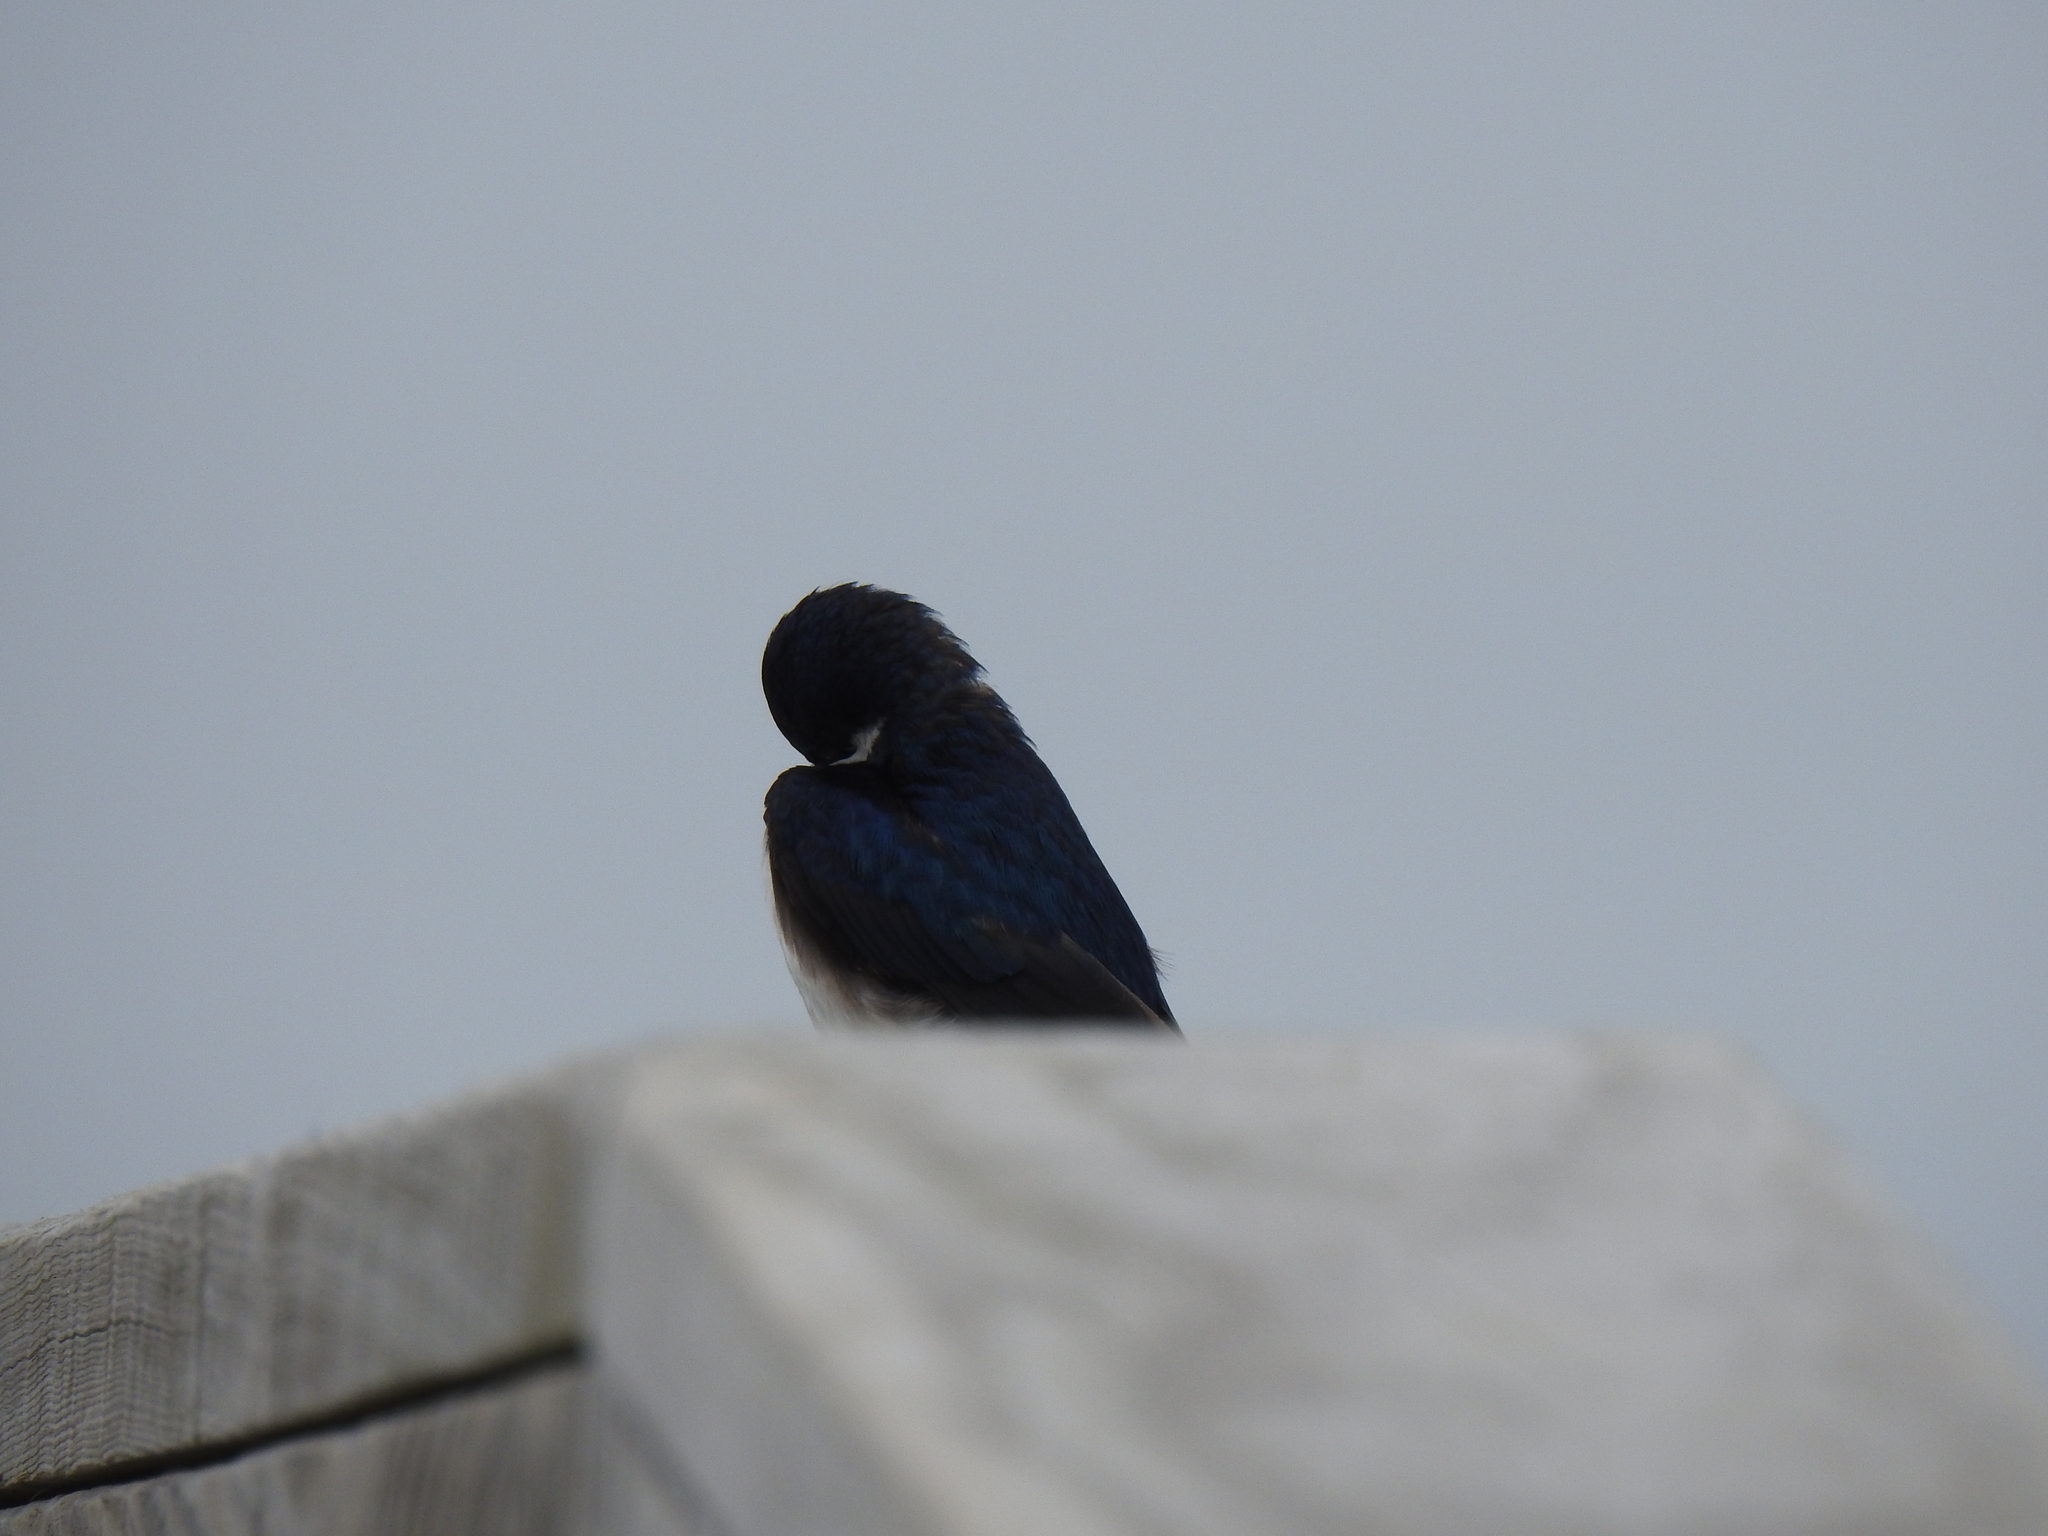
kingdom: Animalia
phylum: Chordata
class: Aves
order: Passeriformes
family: Hirundinidae
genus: Tachycineta
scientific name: Tachycineta bicolor
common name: Tree swallow
